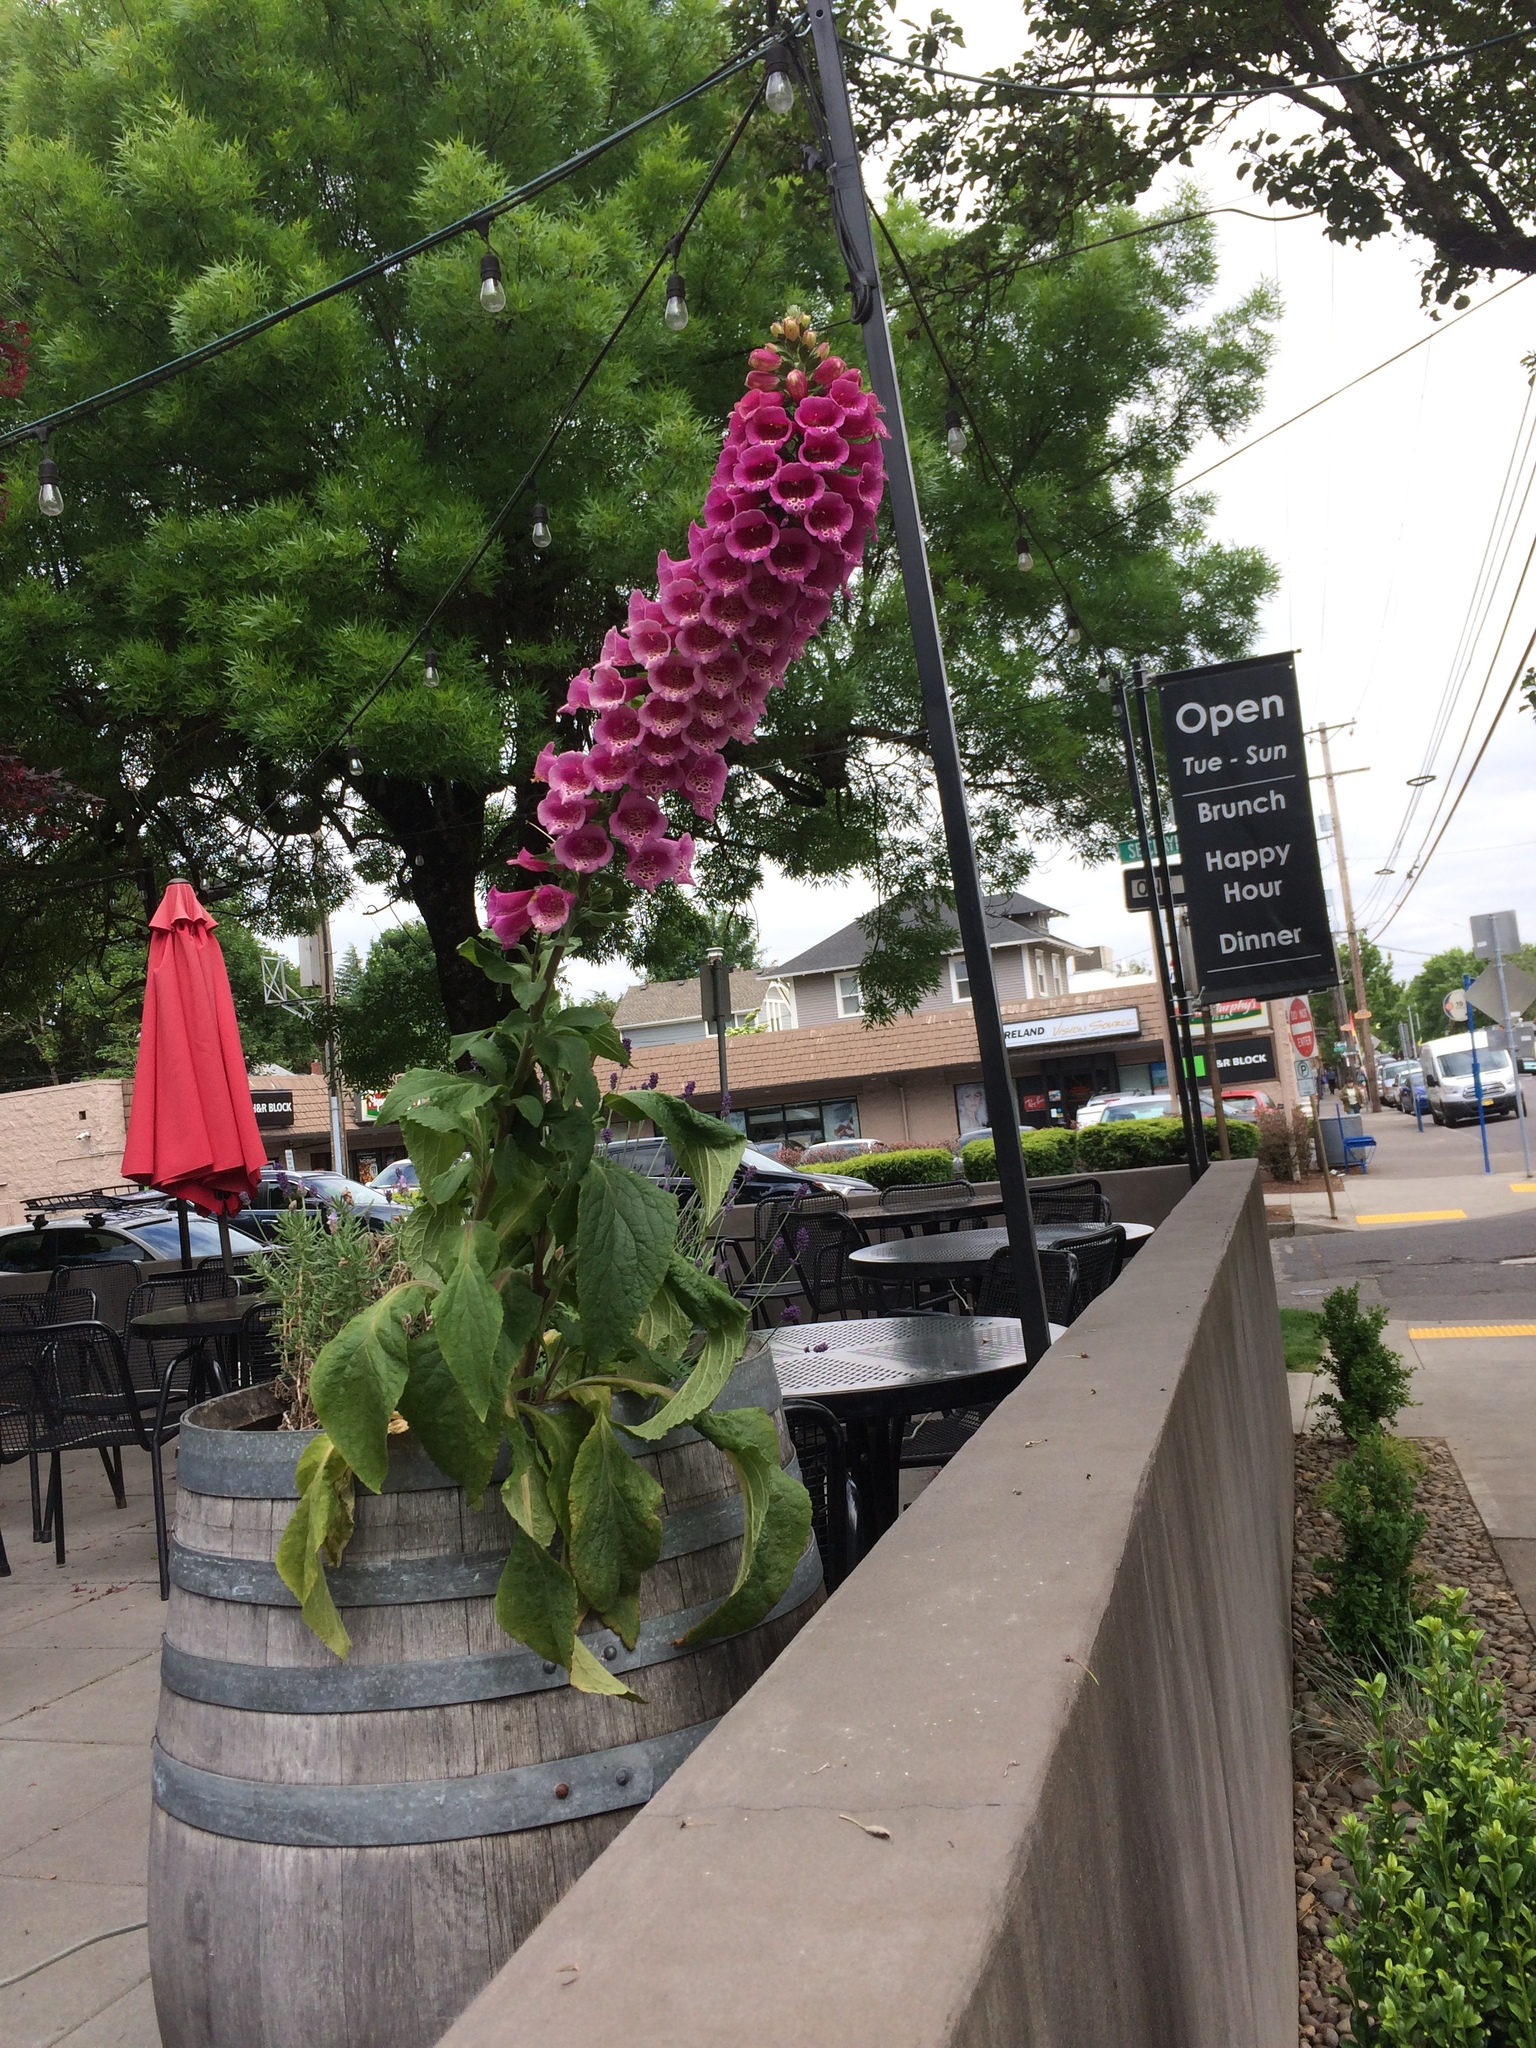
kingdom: Plantae
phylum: Tracheophyta
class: Magnoliopsida
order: Lamiales
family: Plantaginaceae
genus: Digitalis
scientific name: Digitalis purpurea
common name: Foxglove
